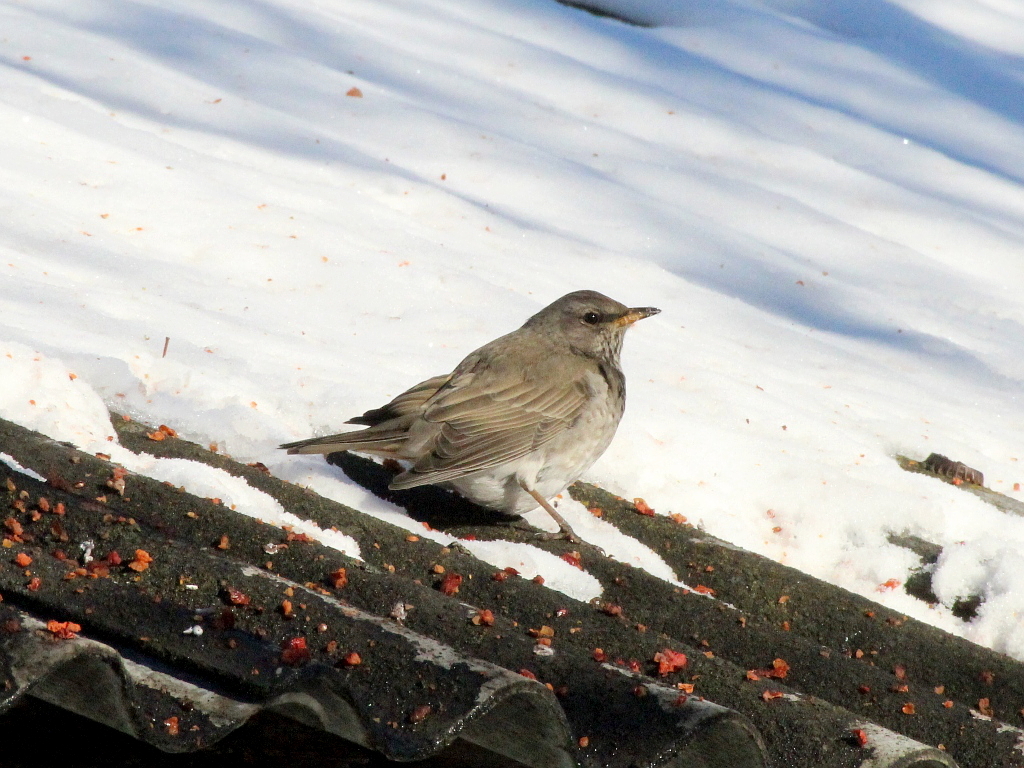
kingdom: Animalia
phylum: Chordata
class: Aves
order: Passeriformes
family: Turdidae
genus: Turdus
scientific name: Turdus atrogularis
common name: Black-throated thrush
